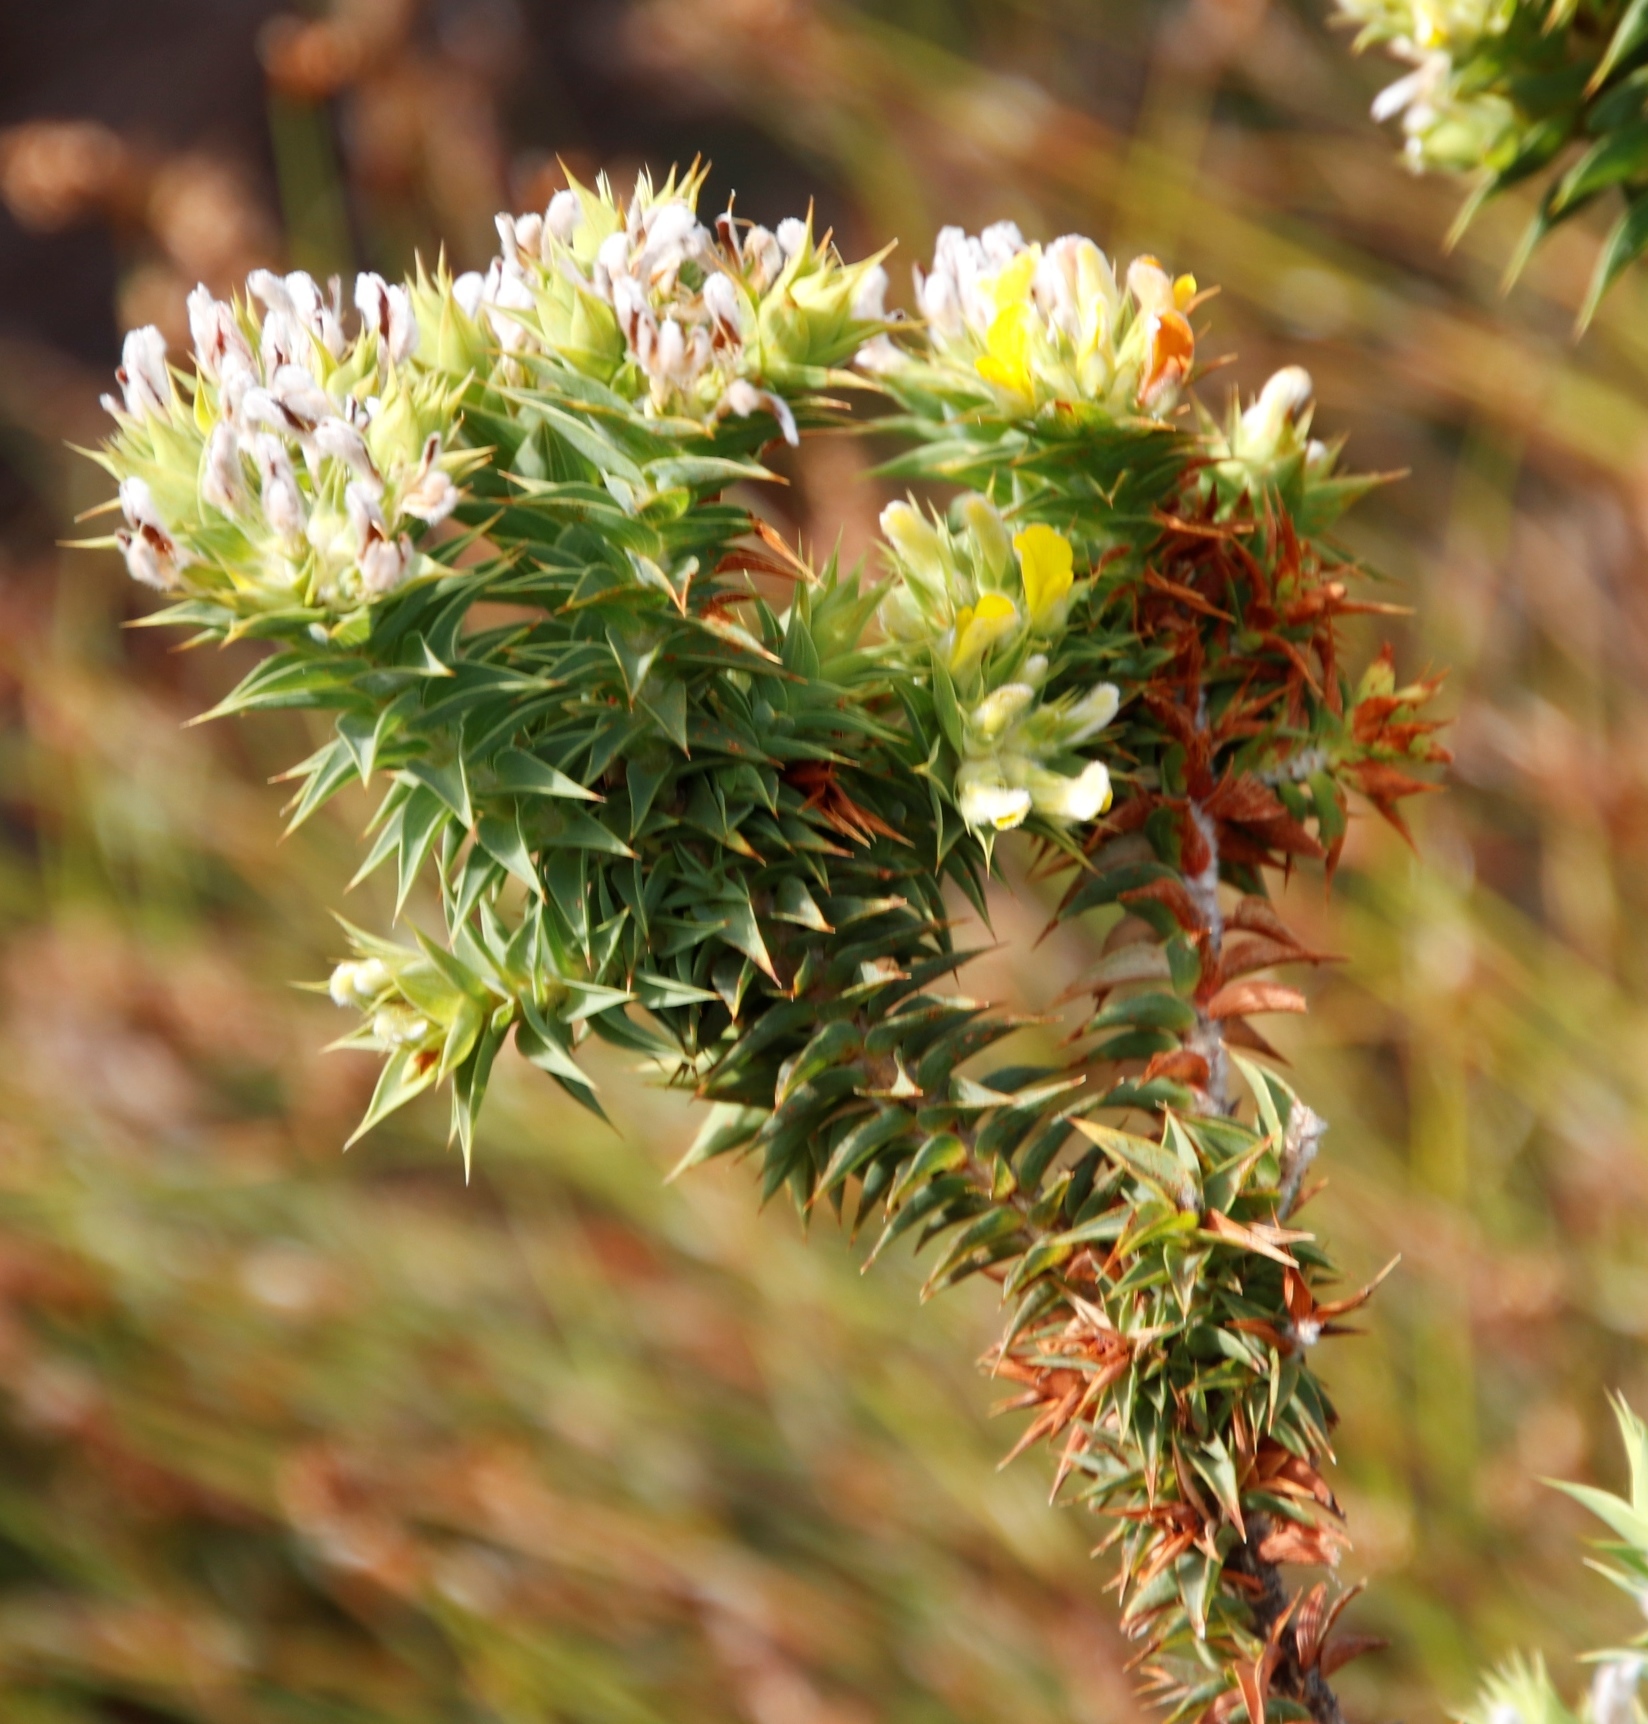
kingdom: Plantae
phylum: Tracheophyta
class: Magnoliopsida
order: Fabales
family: Fabaceae
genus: Aspalathus
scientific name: Aspalathus cordata
